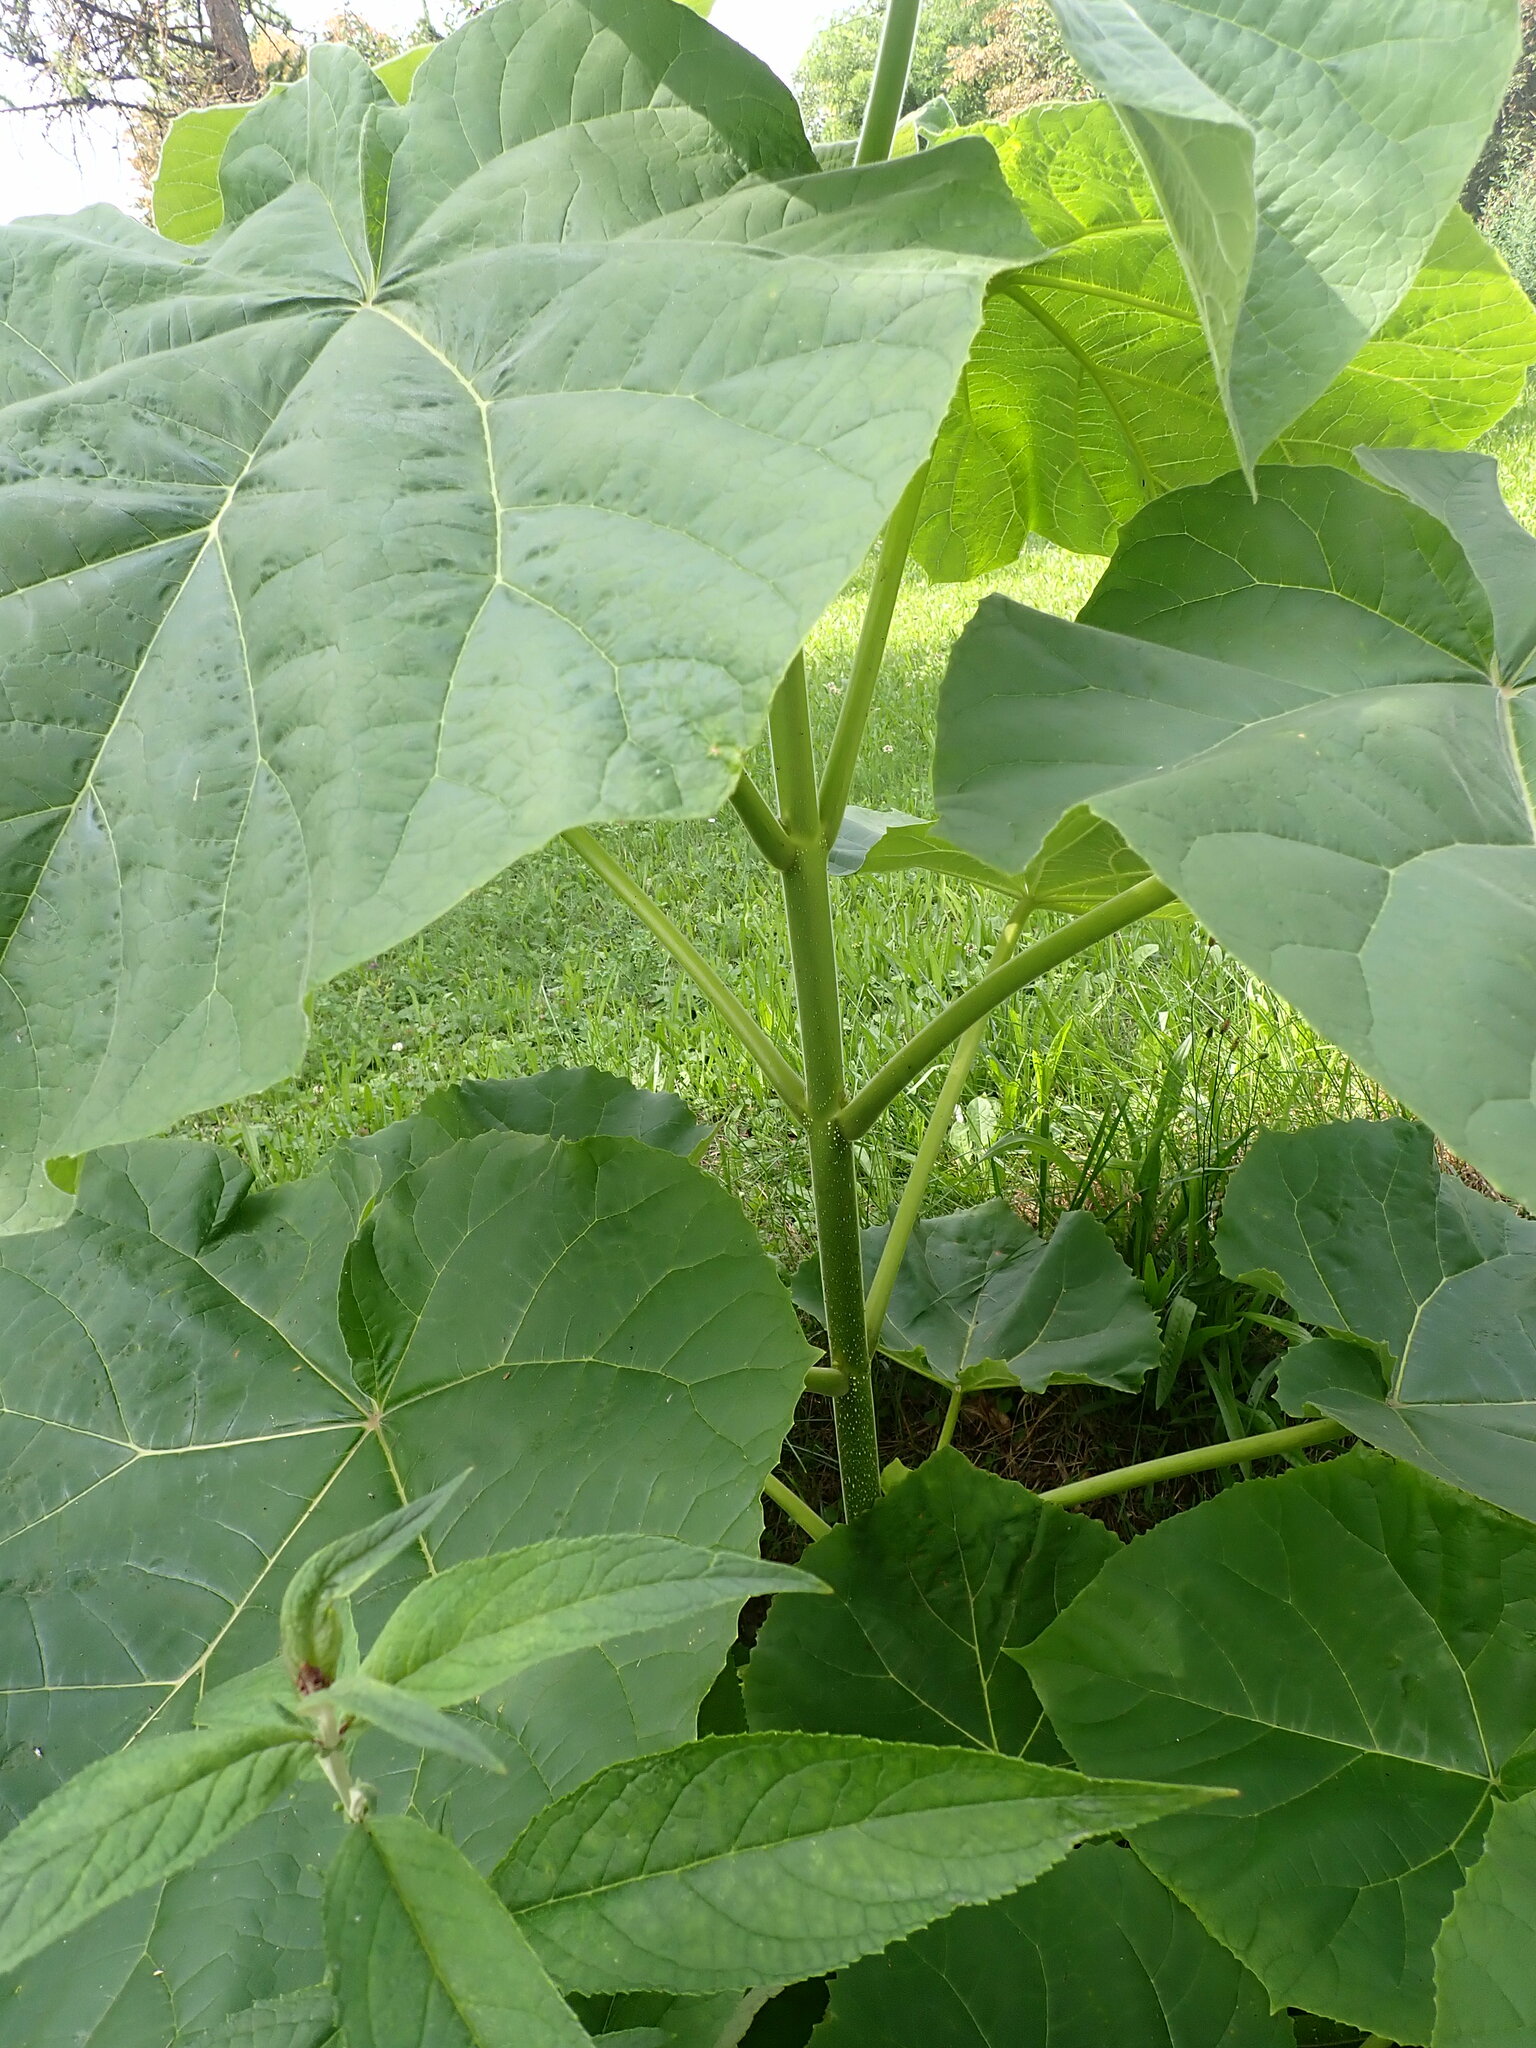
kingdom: Plantae
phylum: Tracheophyta
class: Magnoliopsida
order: Lamiales
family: Paulowniaceae
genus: Paulownia
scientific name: Paulownia tomentosa
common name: Foxglove-tree
